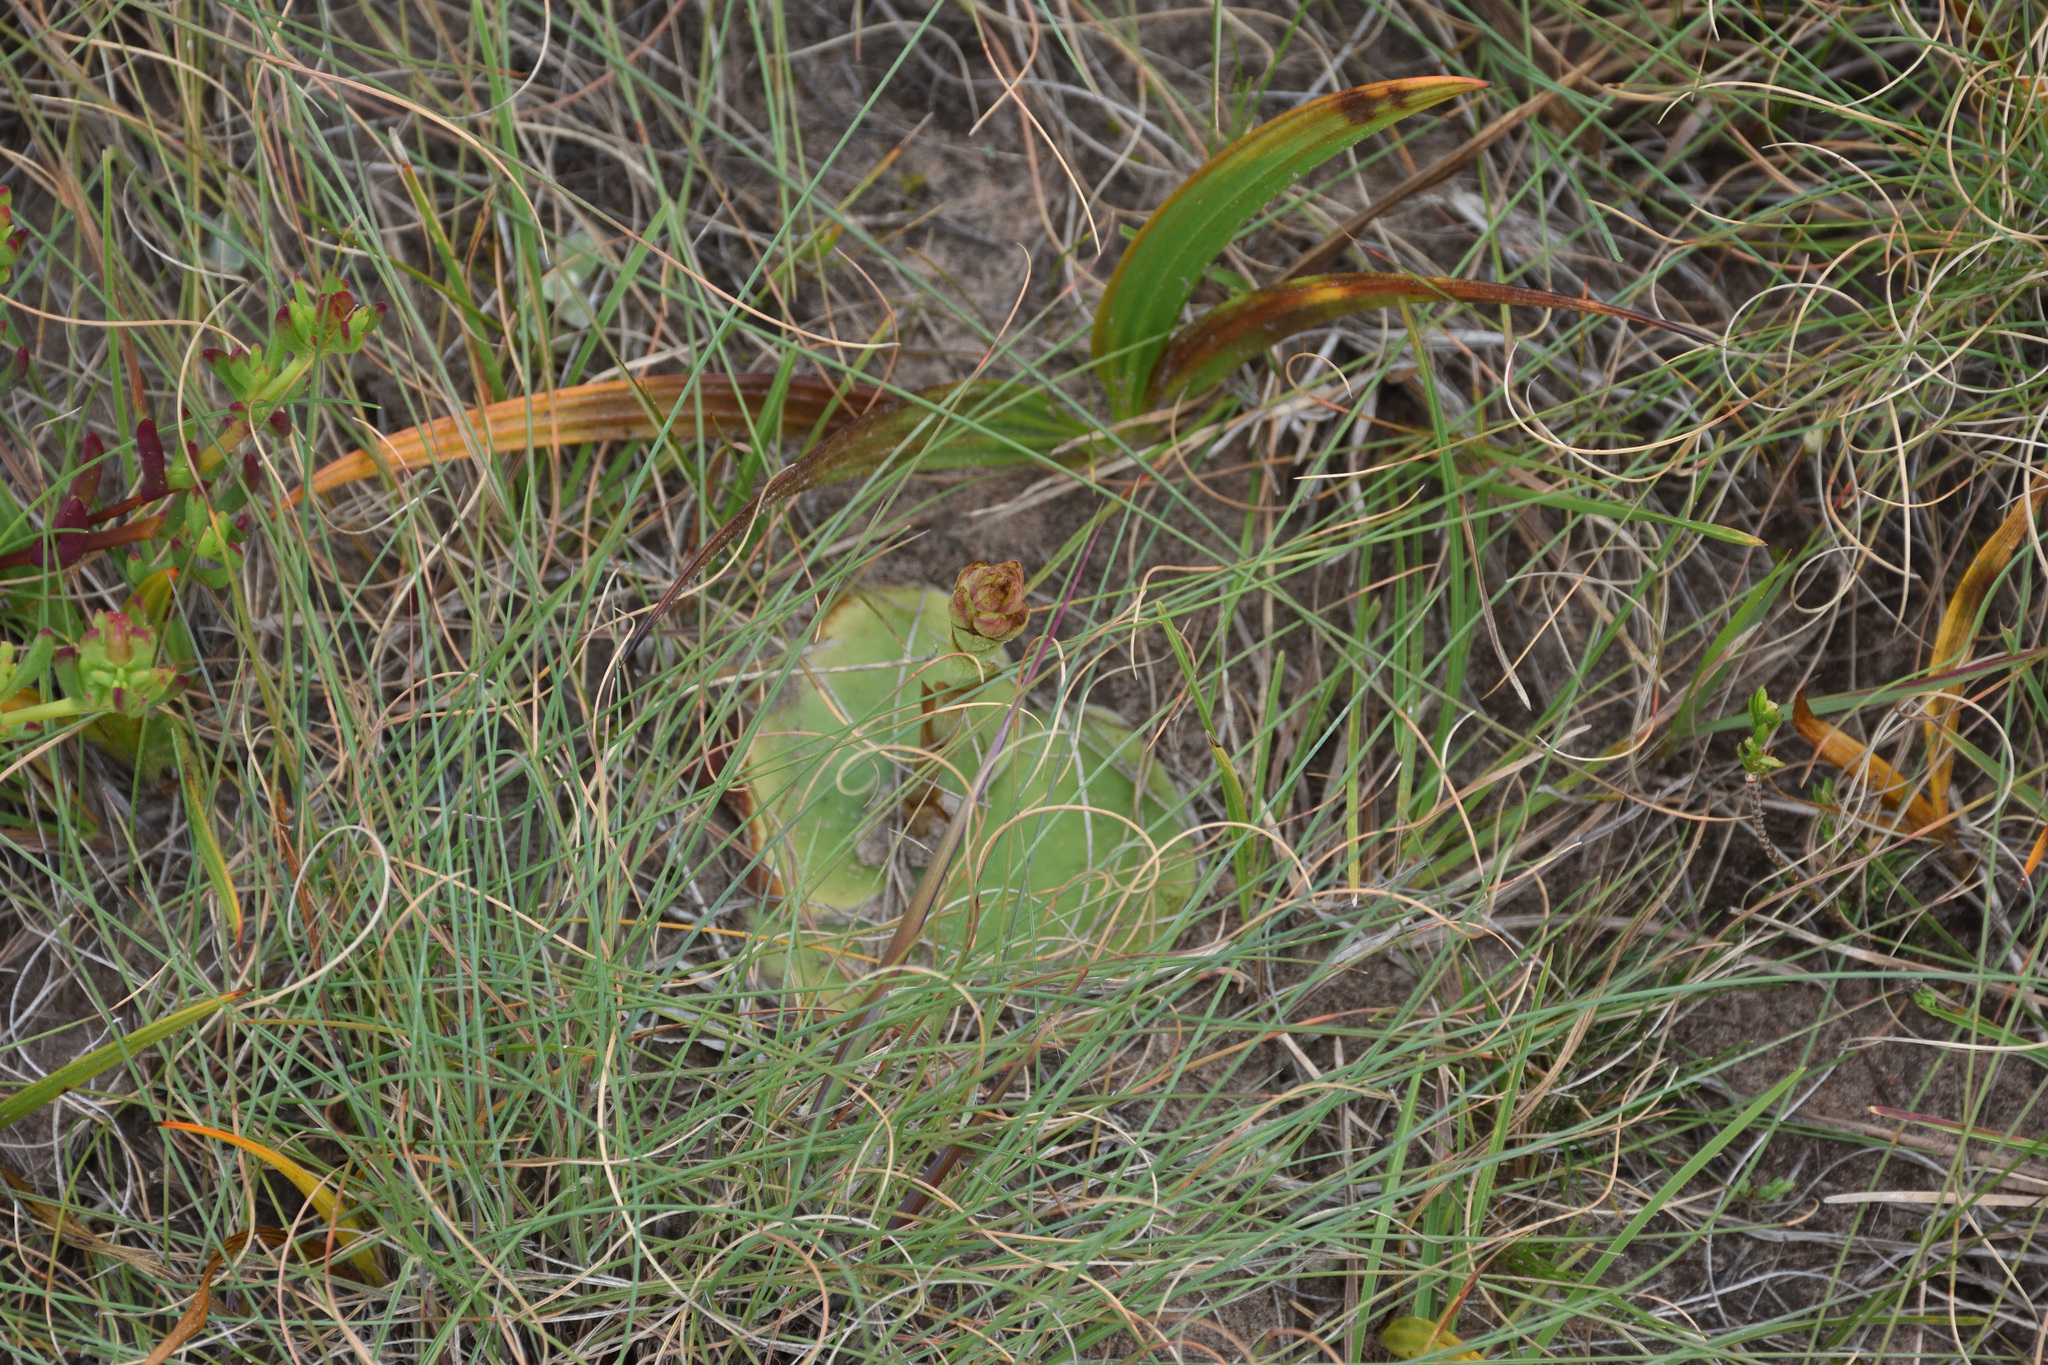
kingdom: Plantae
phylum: Tracheophyta
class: Liliopsida
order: Asparagales
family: Orchidaceae
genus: Satyrium
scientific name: Satyrium membranaceum
